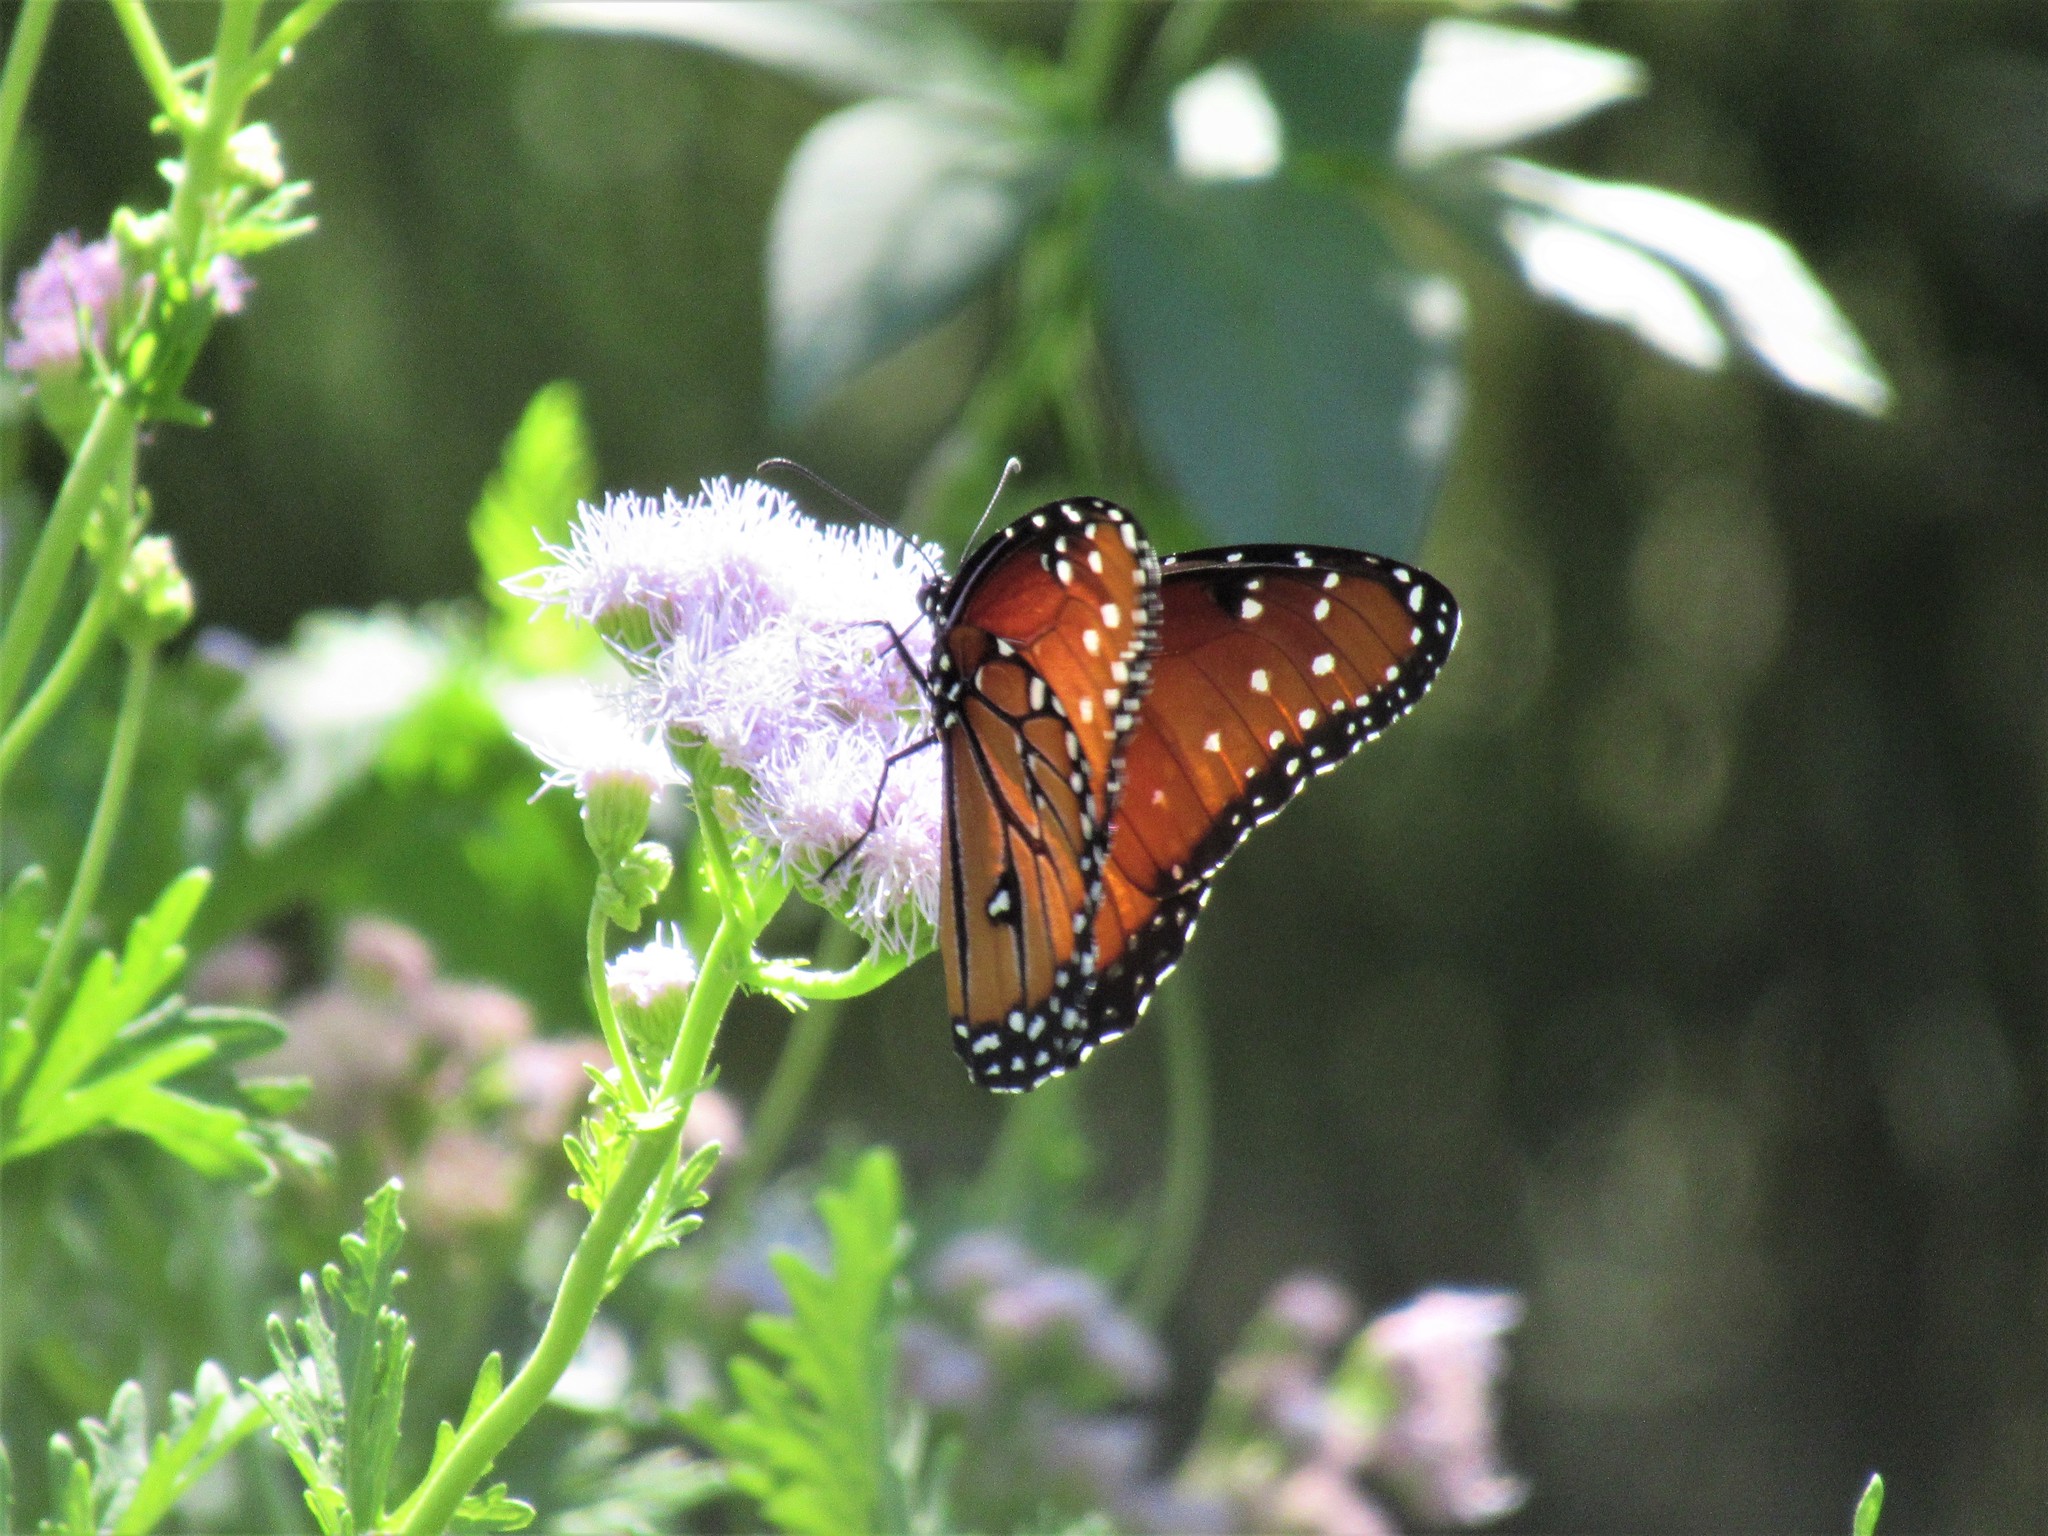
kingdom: Animalia
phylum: Arthropoda
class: Insecta
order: Lepidoptera
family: Nymphalidae
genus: Danaus
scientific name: Danaus gilippus
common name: Queen
